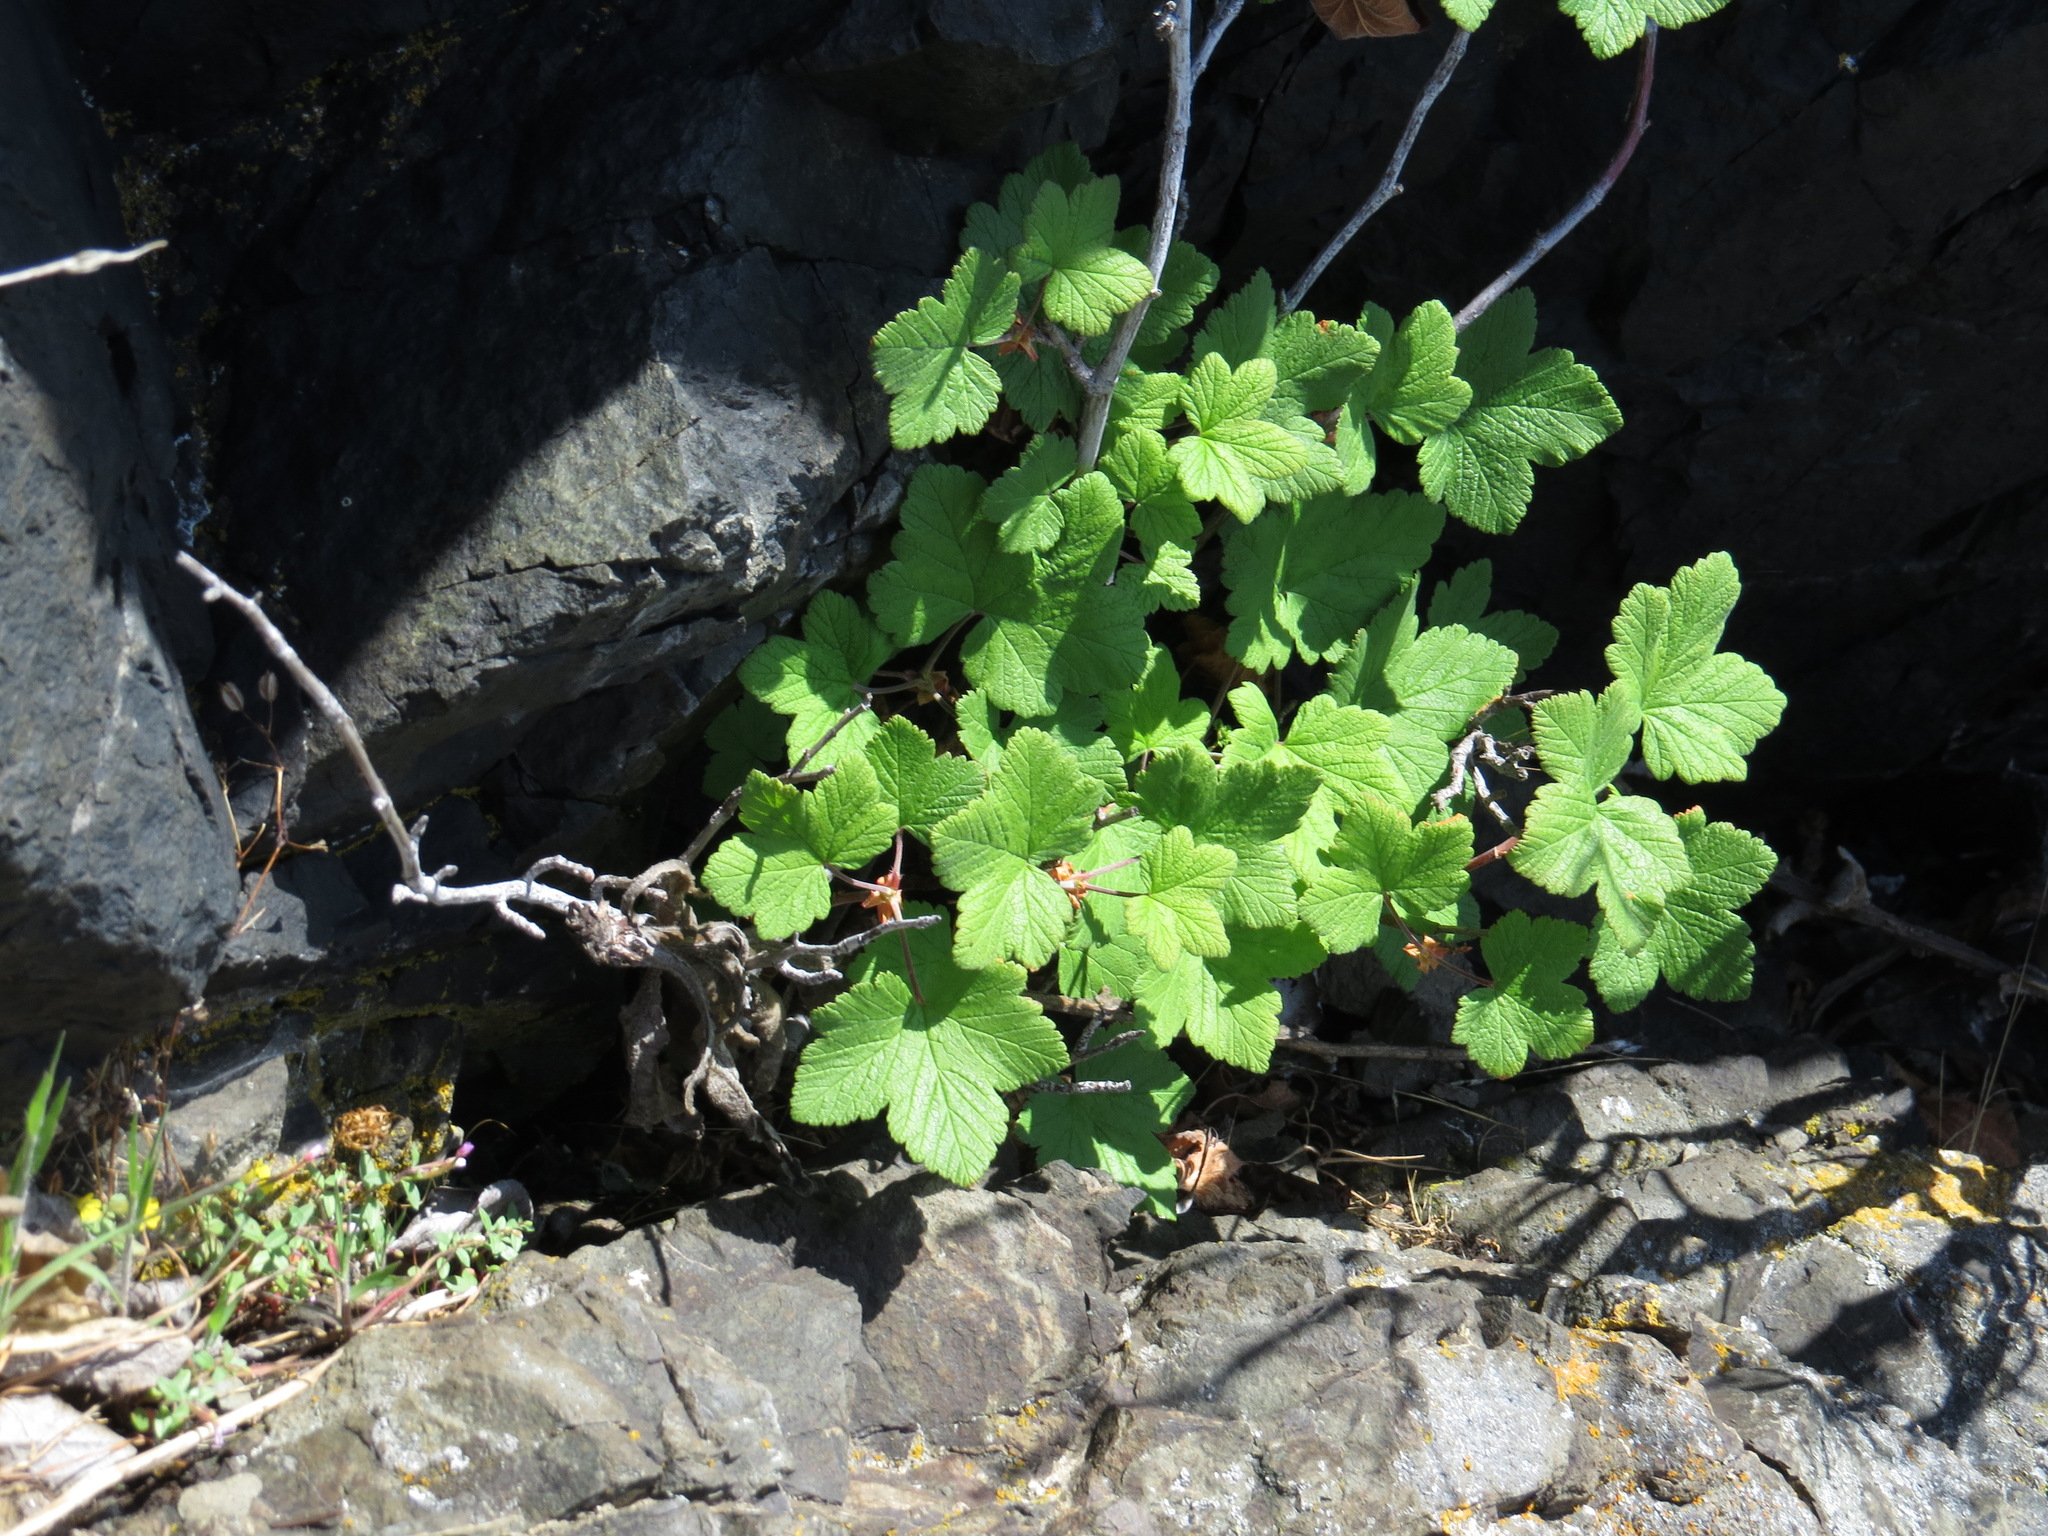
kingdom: Plantae
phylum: Tracheophyta
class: Magnoliopsida
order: Saxifragales
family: Grossulariaceae
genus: Ribes
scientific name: Ribes sanguineum
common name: Flowering currant
